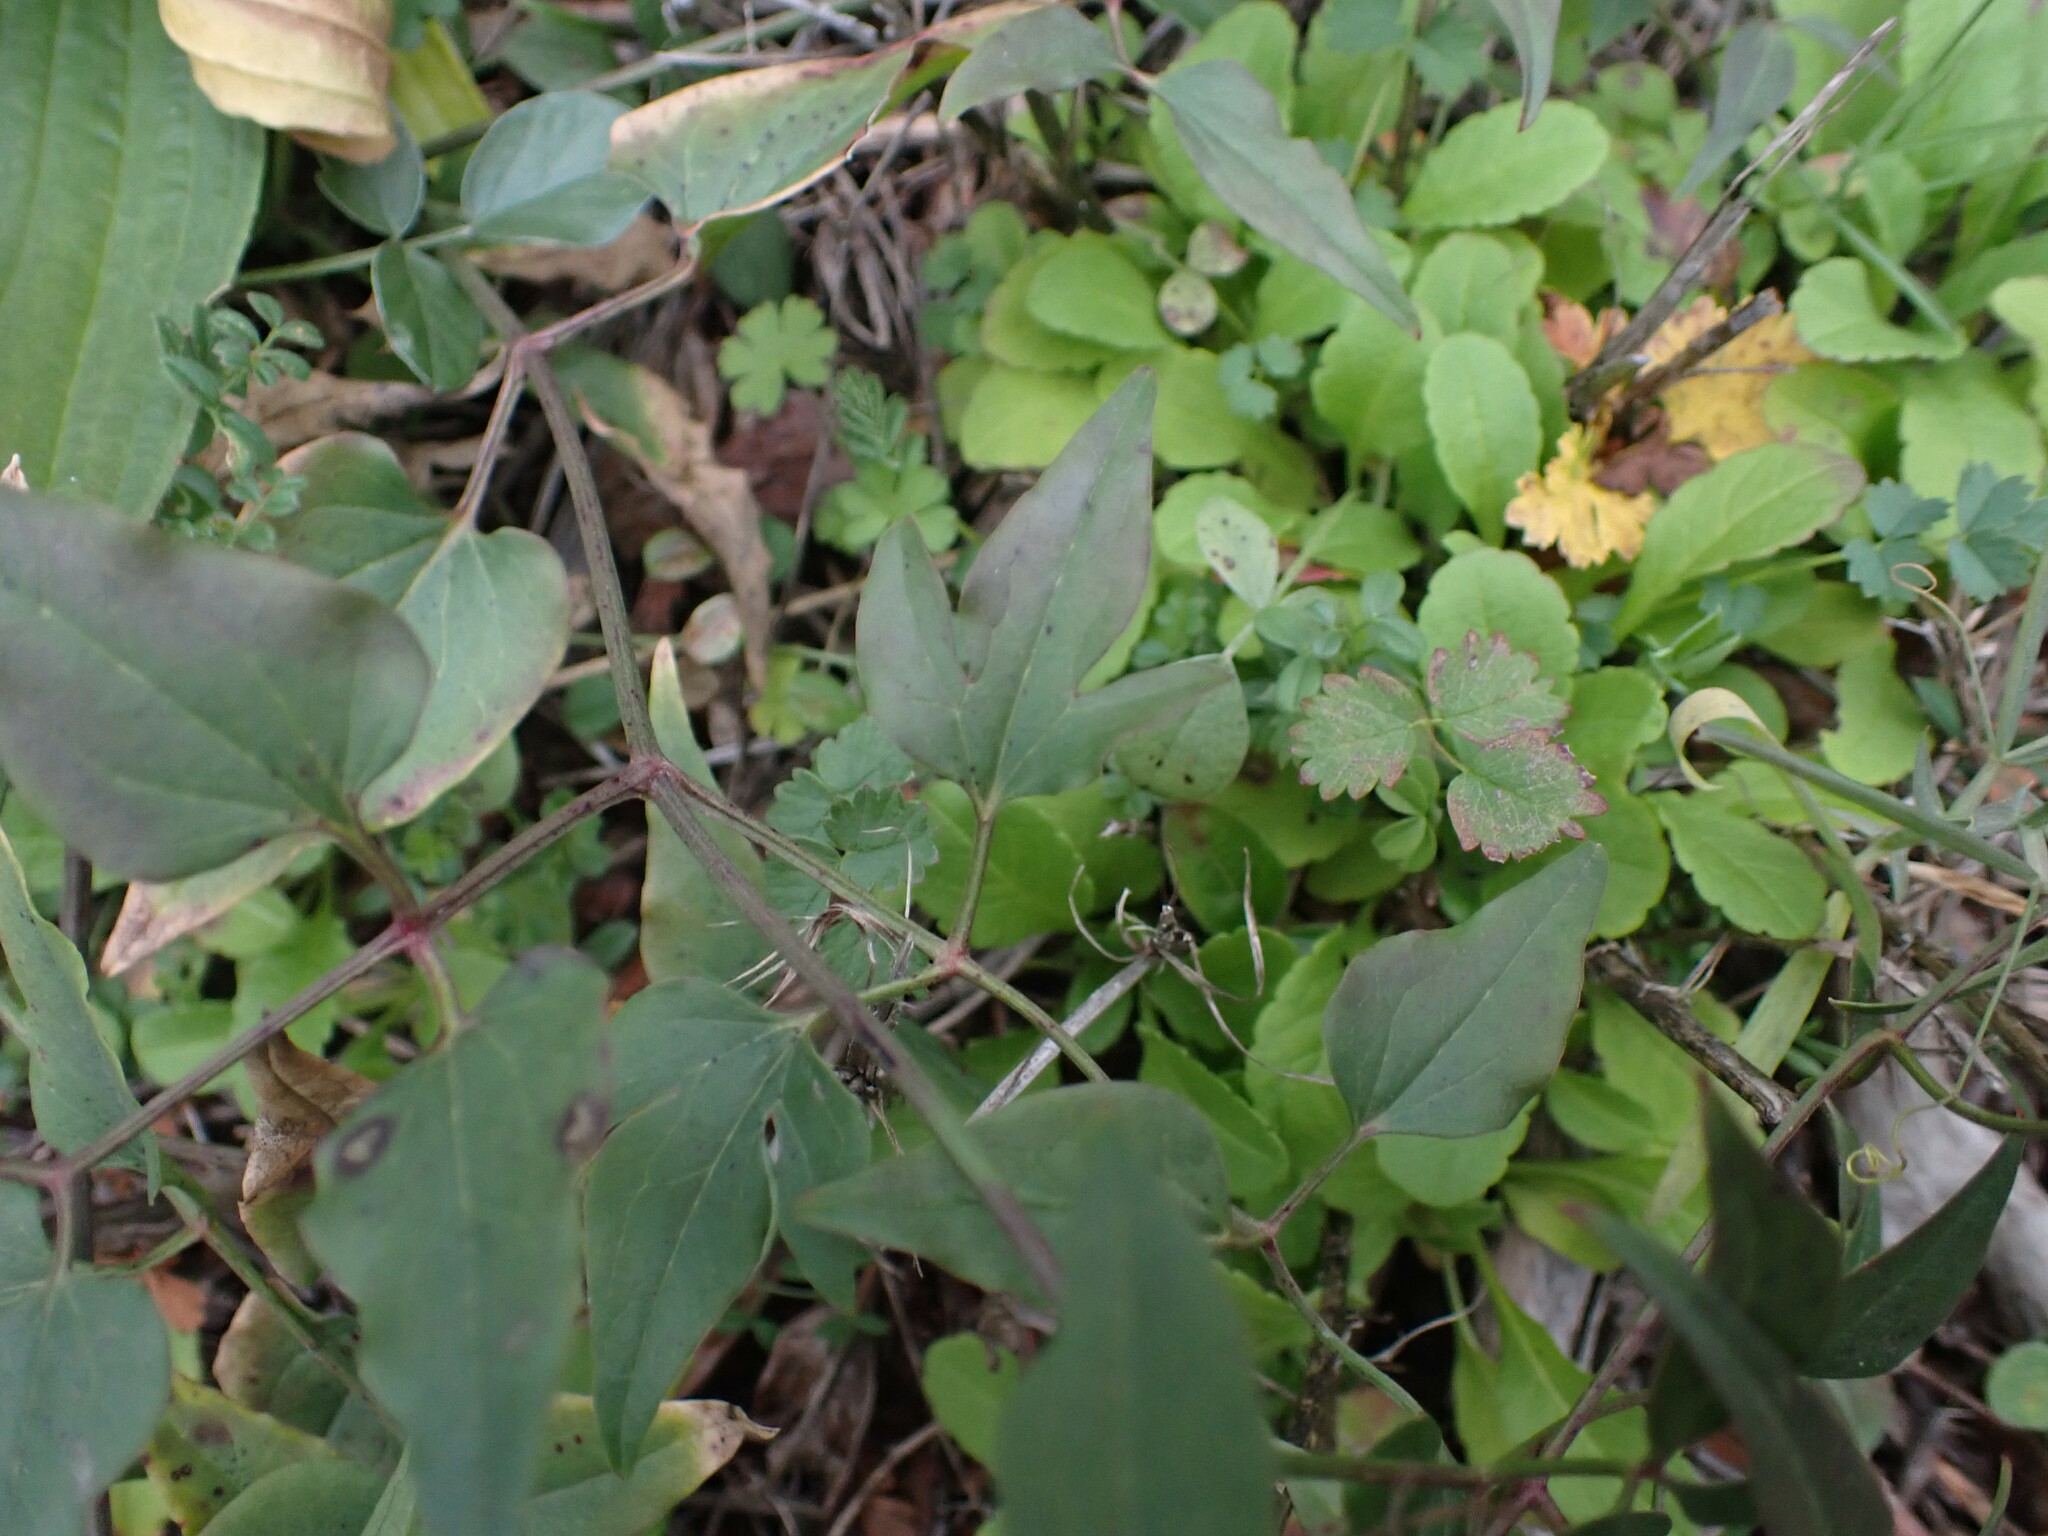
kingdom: Plantae
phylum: Tracheophyta
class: Magnoliopsida
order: Ranunculales
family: Ranunculaceae
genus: Clematis
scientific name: Clematis flammula
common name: Virgin's-bower
